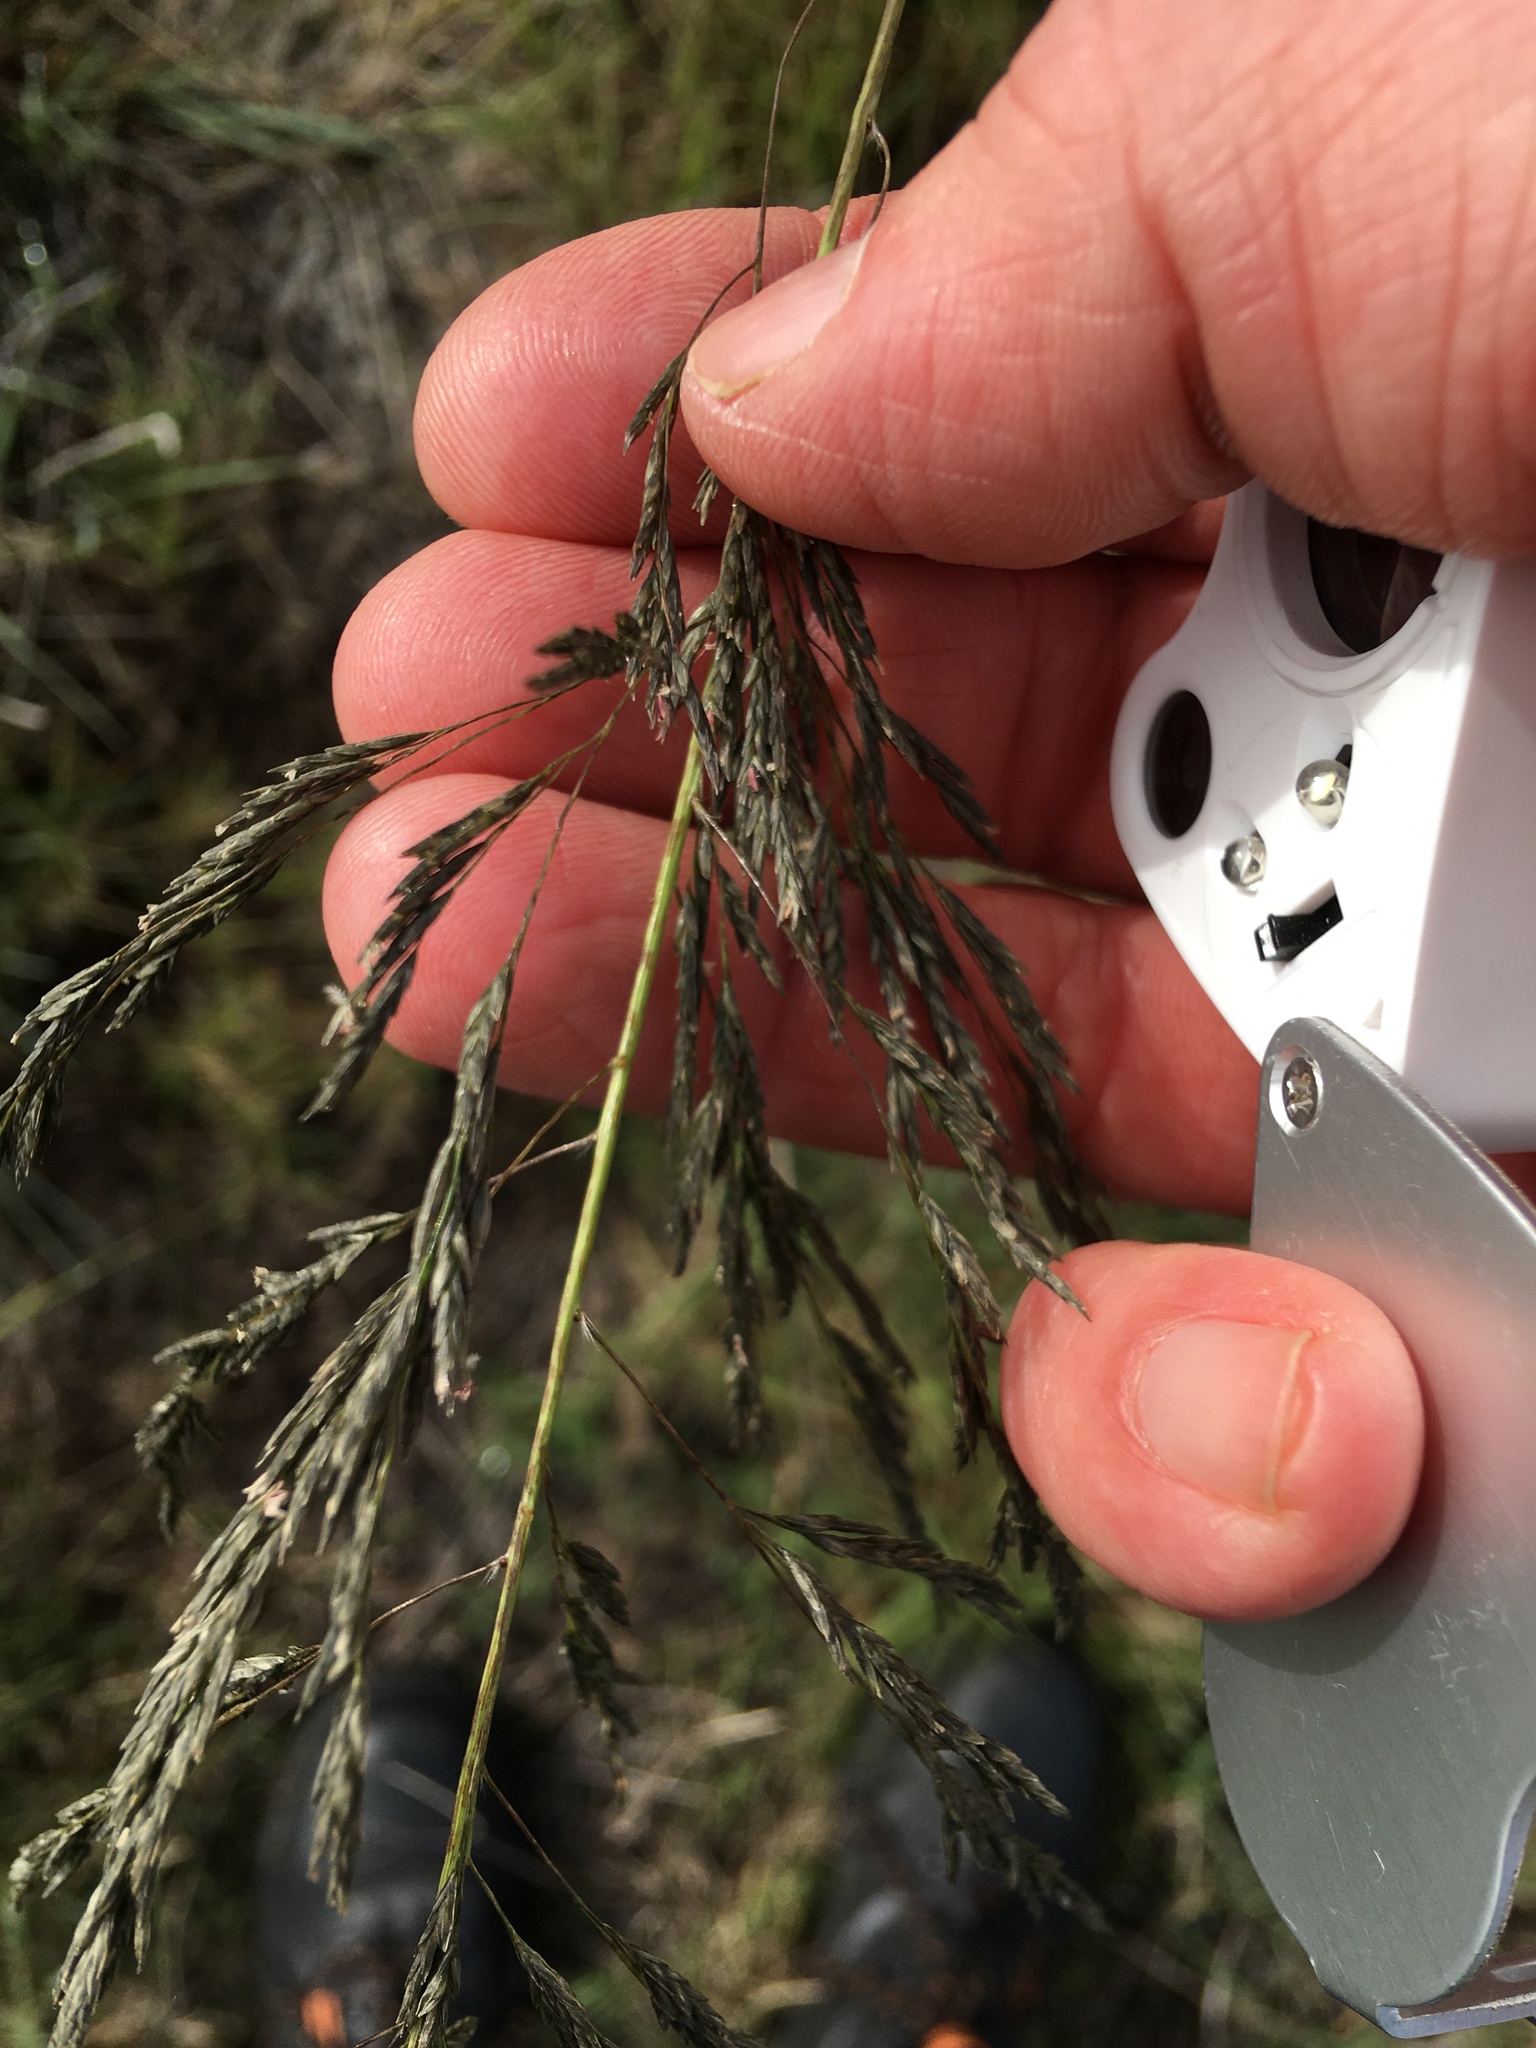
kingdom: Plantae
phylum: Tracheophyta
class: Liliopsida
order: Poales
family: Poaceae
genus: Eragrostis
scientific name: Eragrostis curvula
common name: African love-grass
